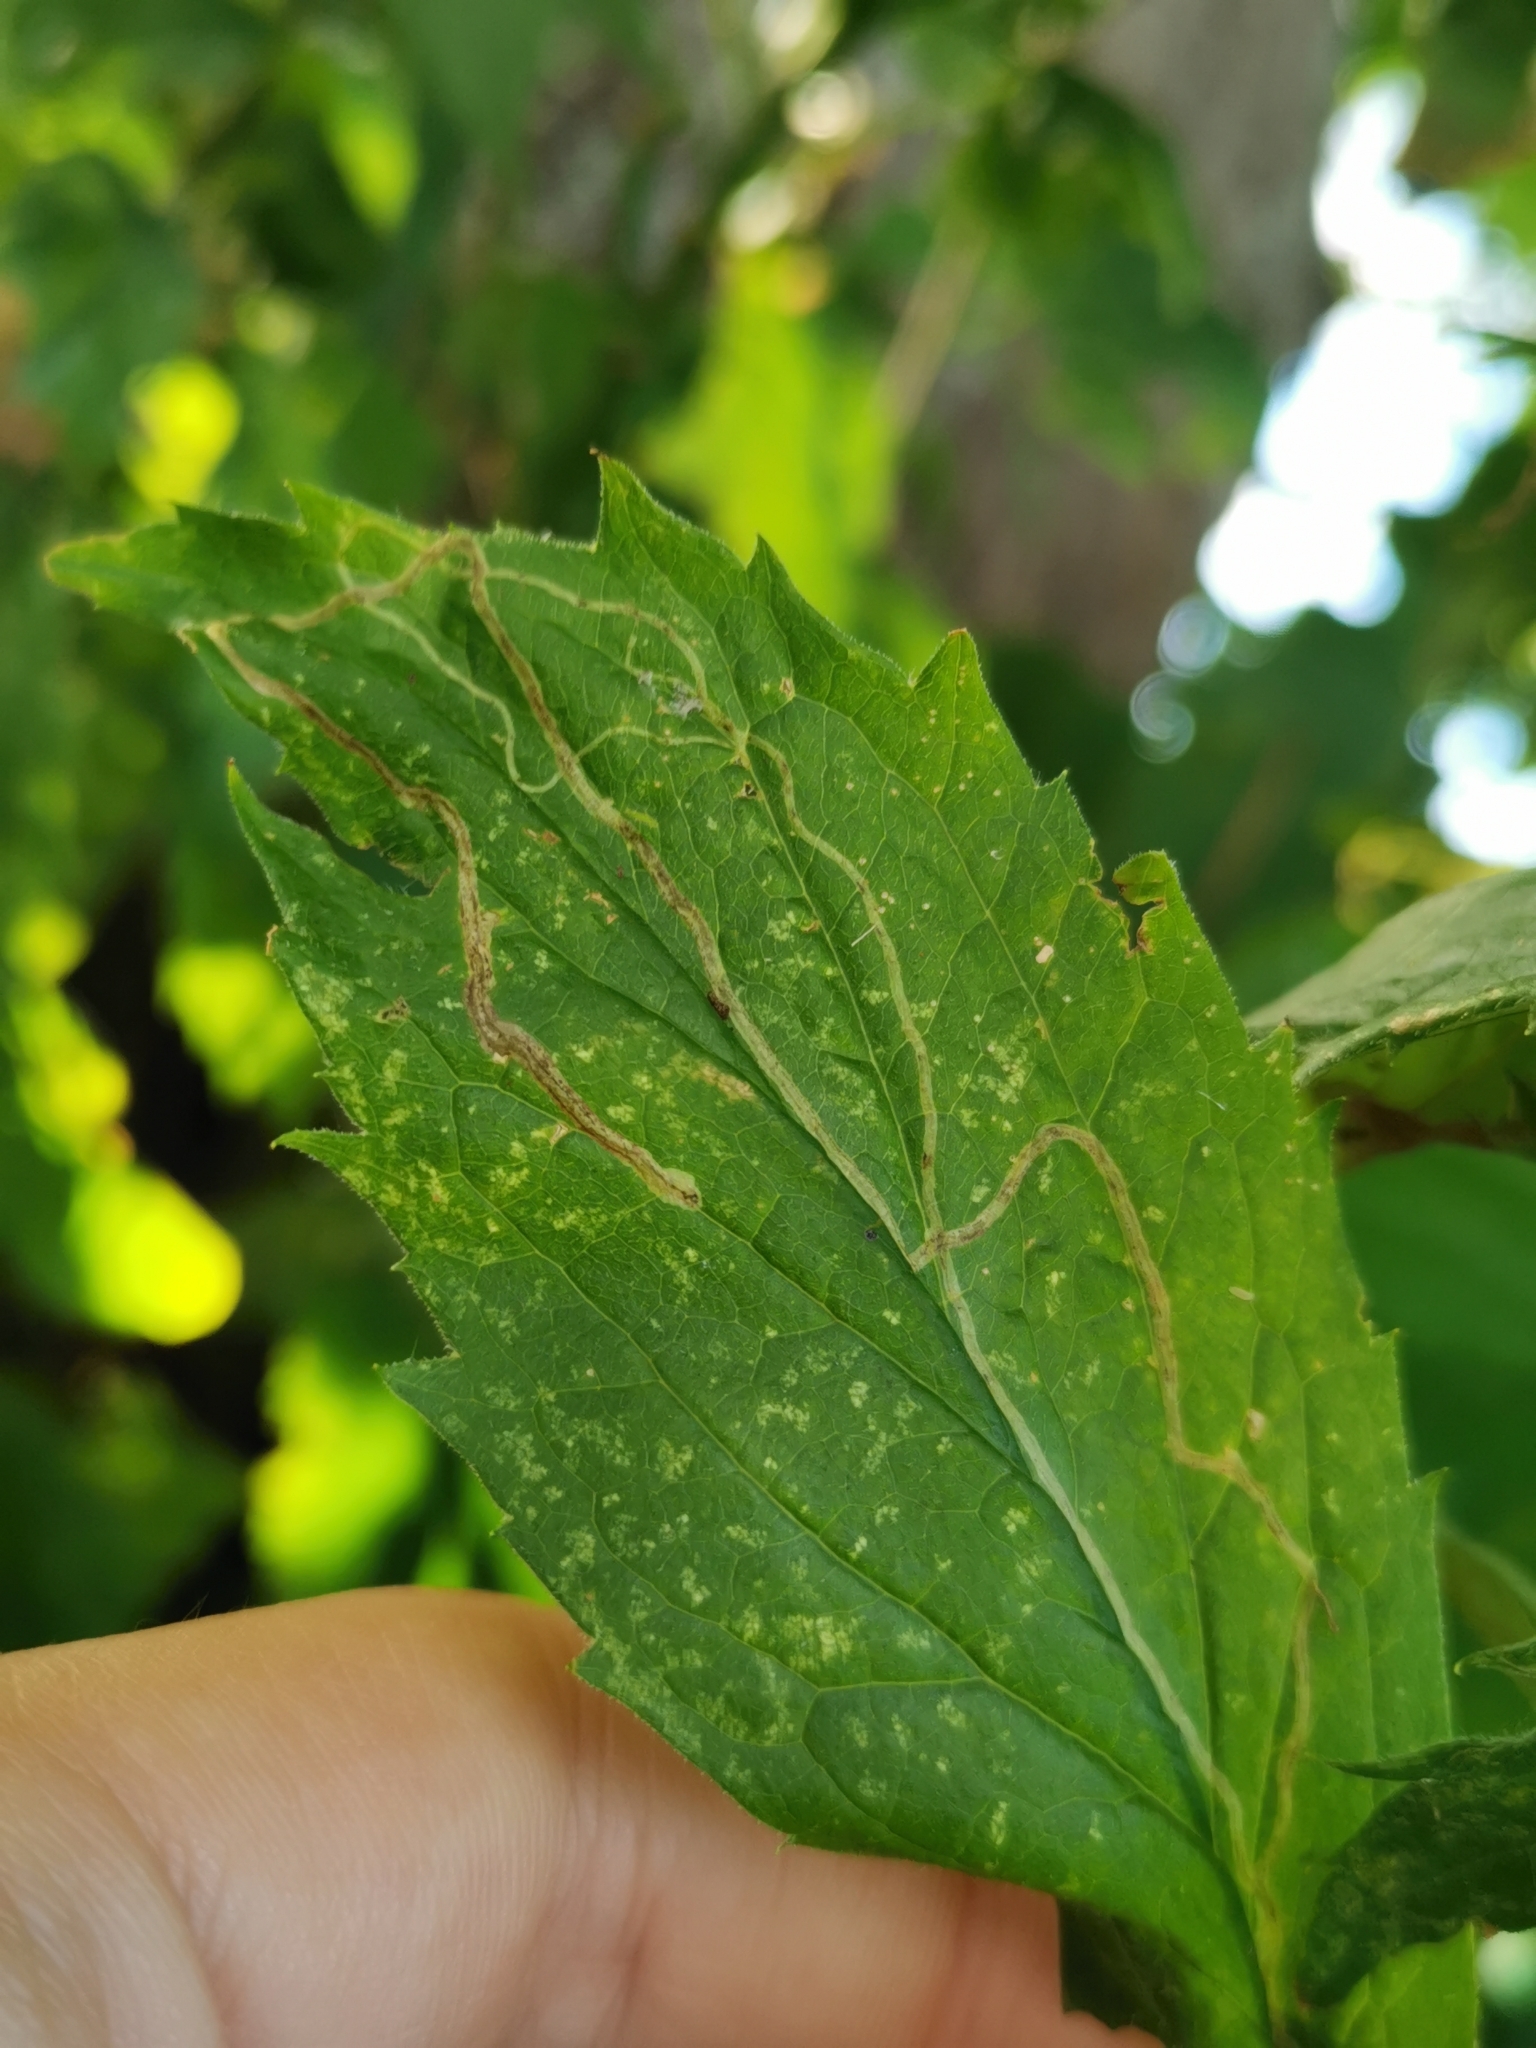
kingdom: Animalia
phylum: Arthropoda
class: Insecta
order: Diptera
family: Agromyzidae
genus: Ophiomyia
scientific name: Ophiomyia maura
